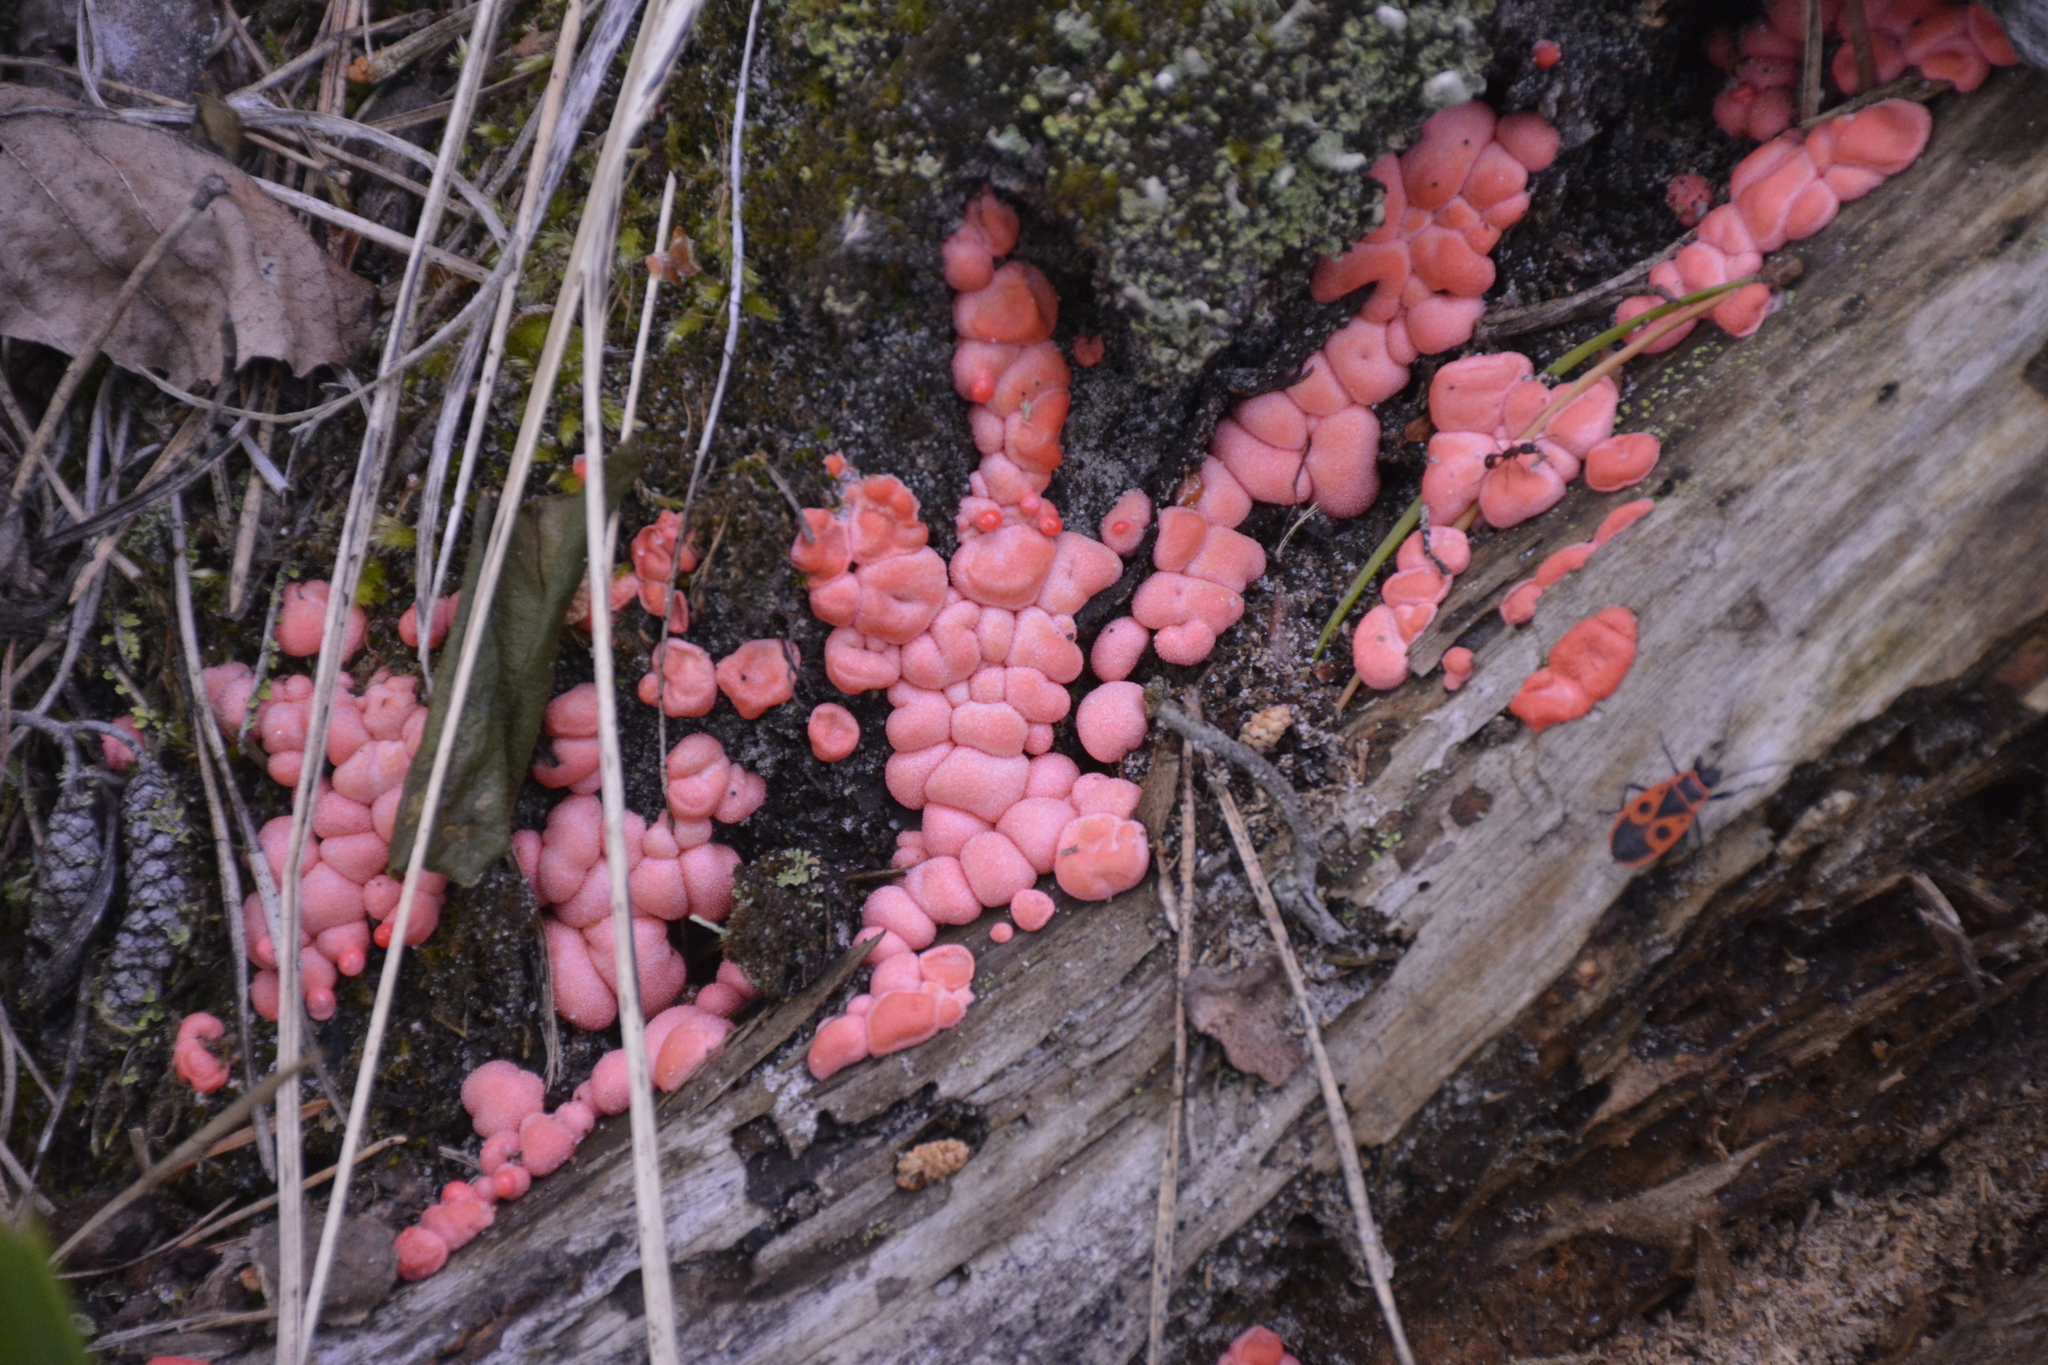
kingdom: Protozoa
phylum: Mycetozoa
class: Myxomycetes
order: Cribrariales
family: Tubiferaceae
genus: Lycogala
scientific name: Lycogala epidendrum
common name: Wolf's milk
